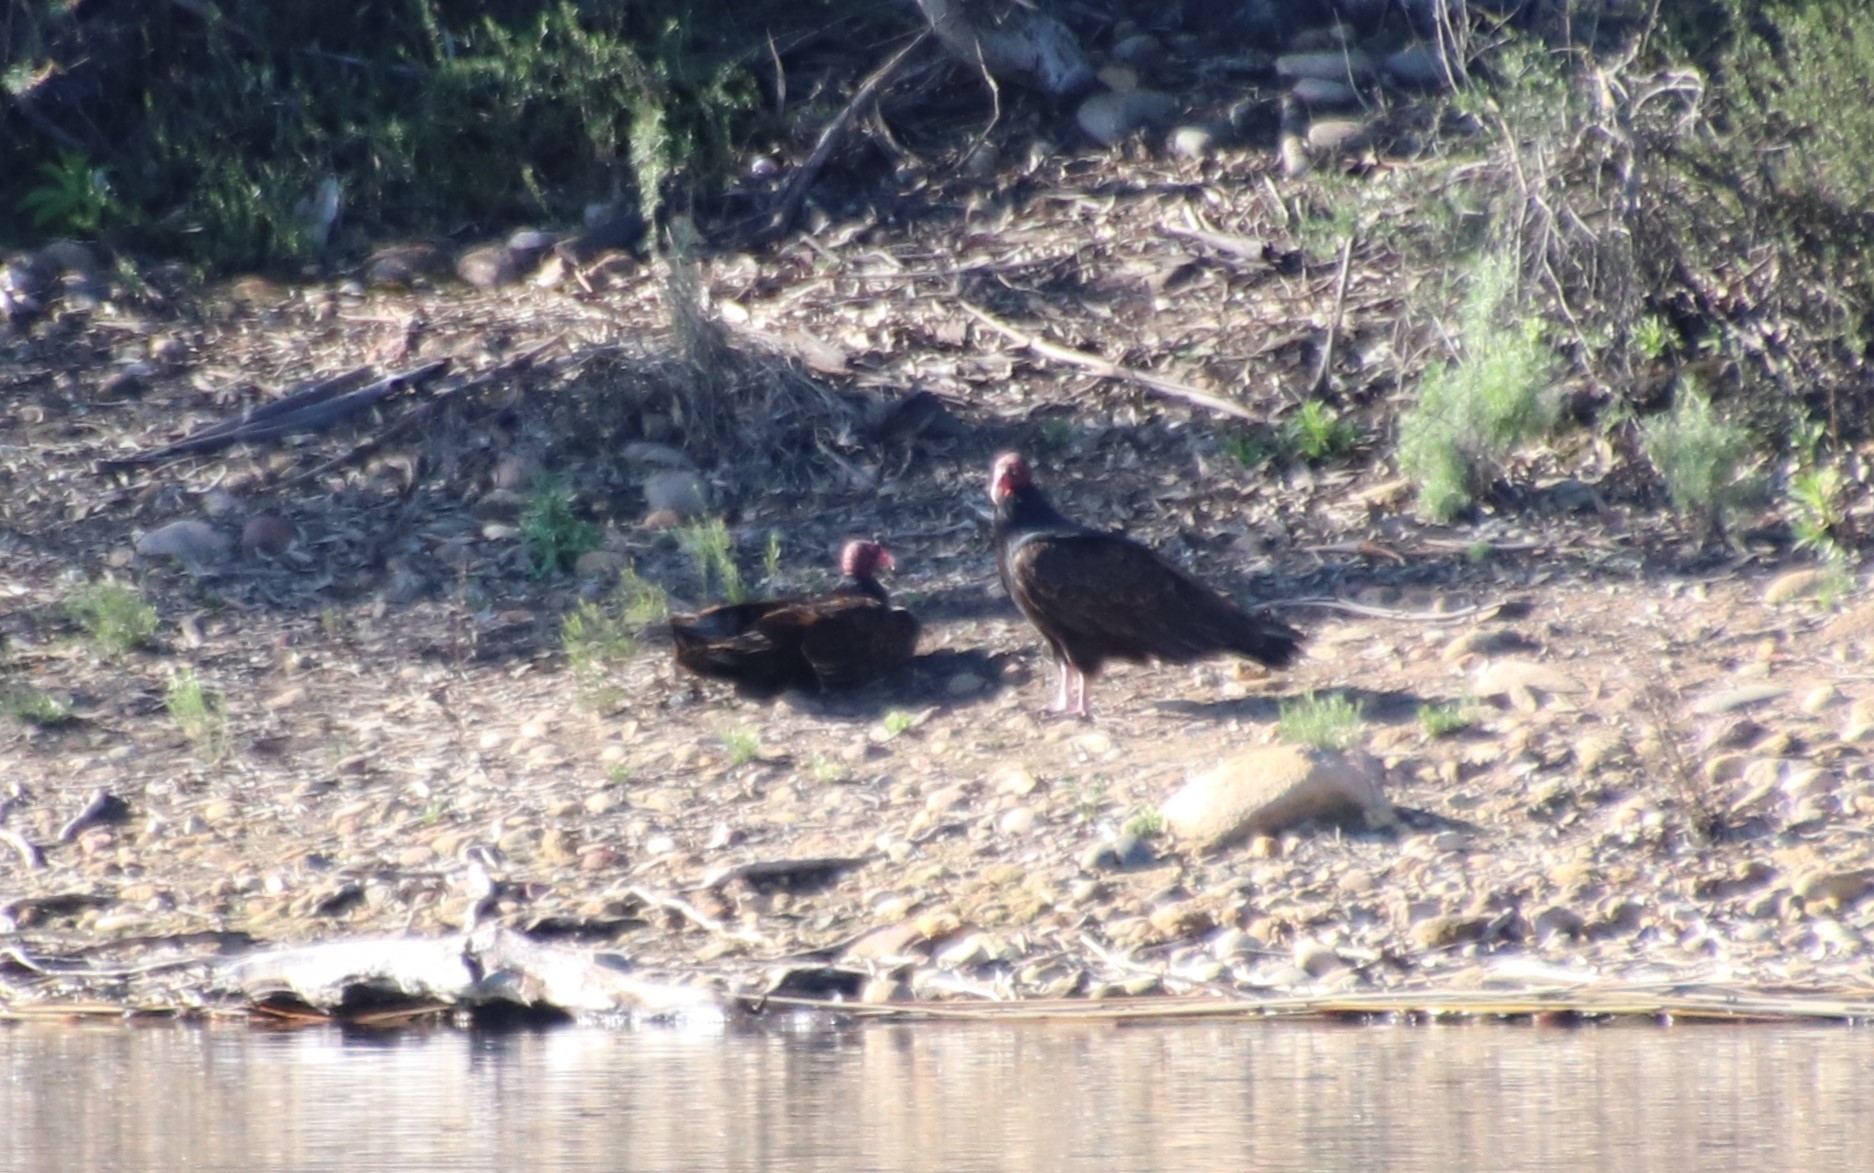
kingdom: Animalia
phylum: Chordata
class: Aves
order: Accipitriformes
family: Cathartidae
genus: Cathartes
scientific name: Cathartes aura
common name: Turkey vulture
